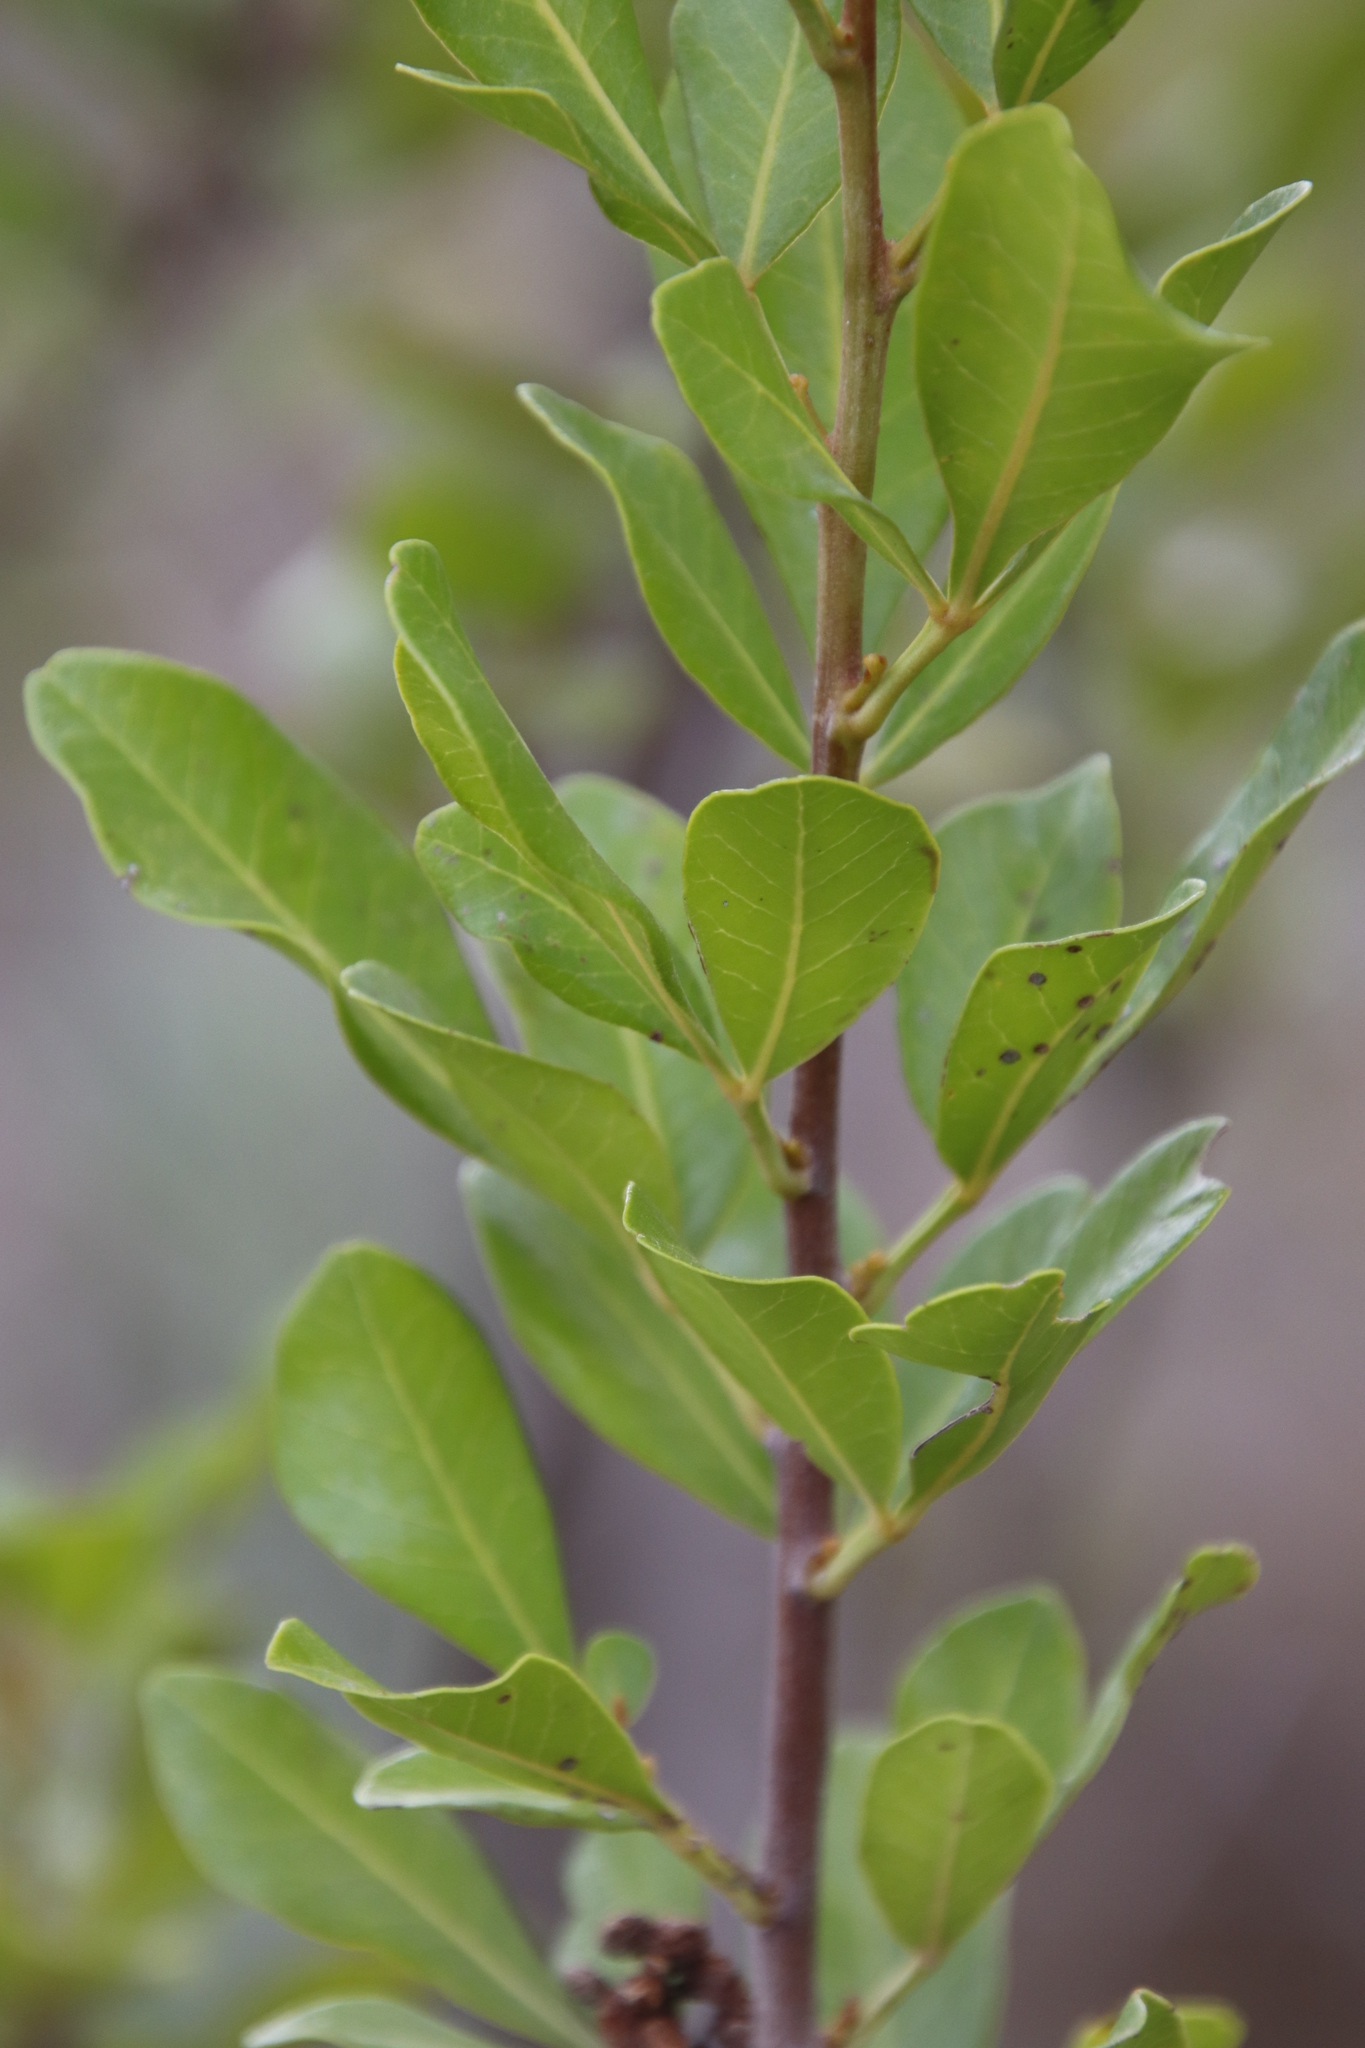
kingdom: Plantae
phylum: Tracheophyta
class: Magnoliopsida
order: Sapindales
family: Anacardiaceae
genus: Searsia
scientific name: Searsia lucida
